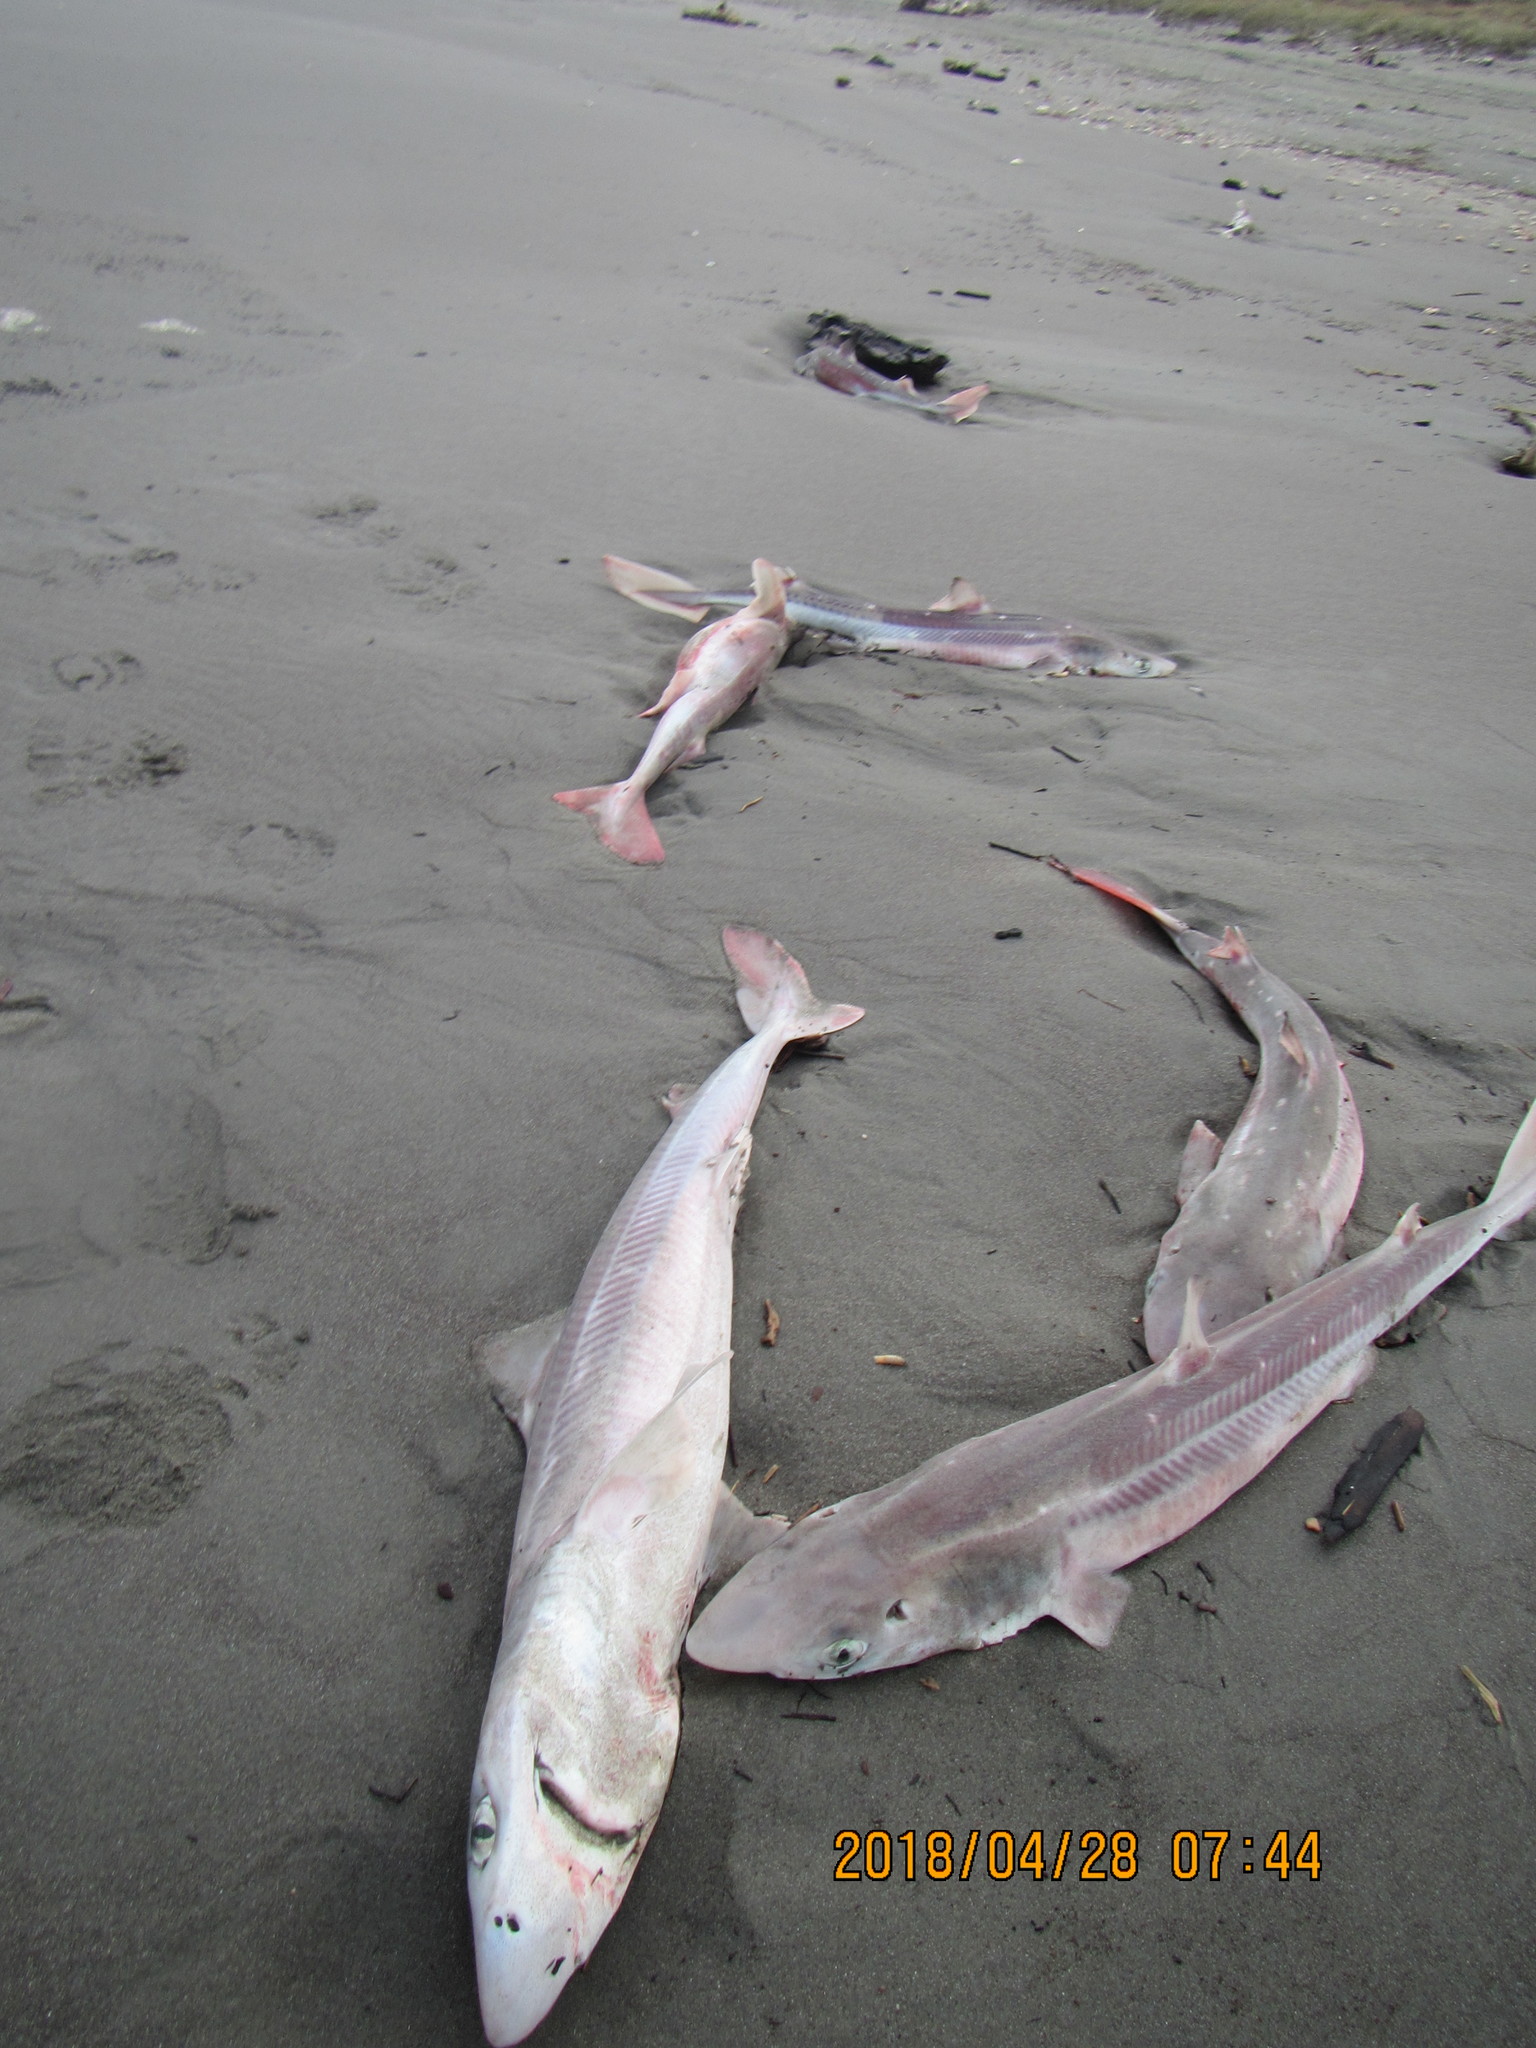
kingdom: Animalia
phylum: Chordata
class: Elasmobranchii
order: Squaliformes
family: Squalidae
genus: Squalus
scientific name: Squalus acanthias
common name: Spurdog
